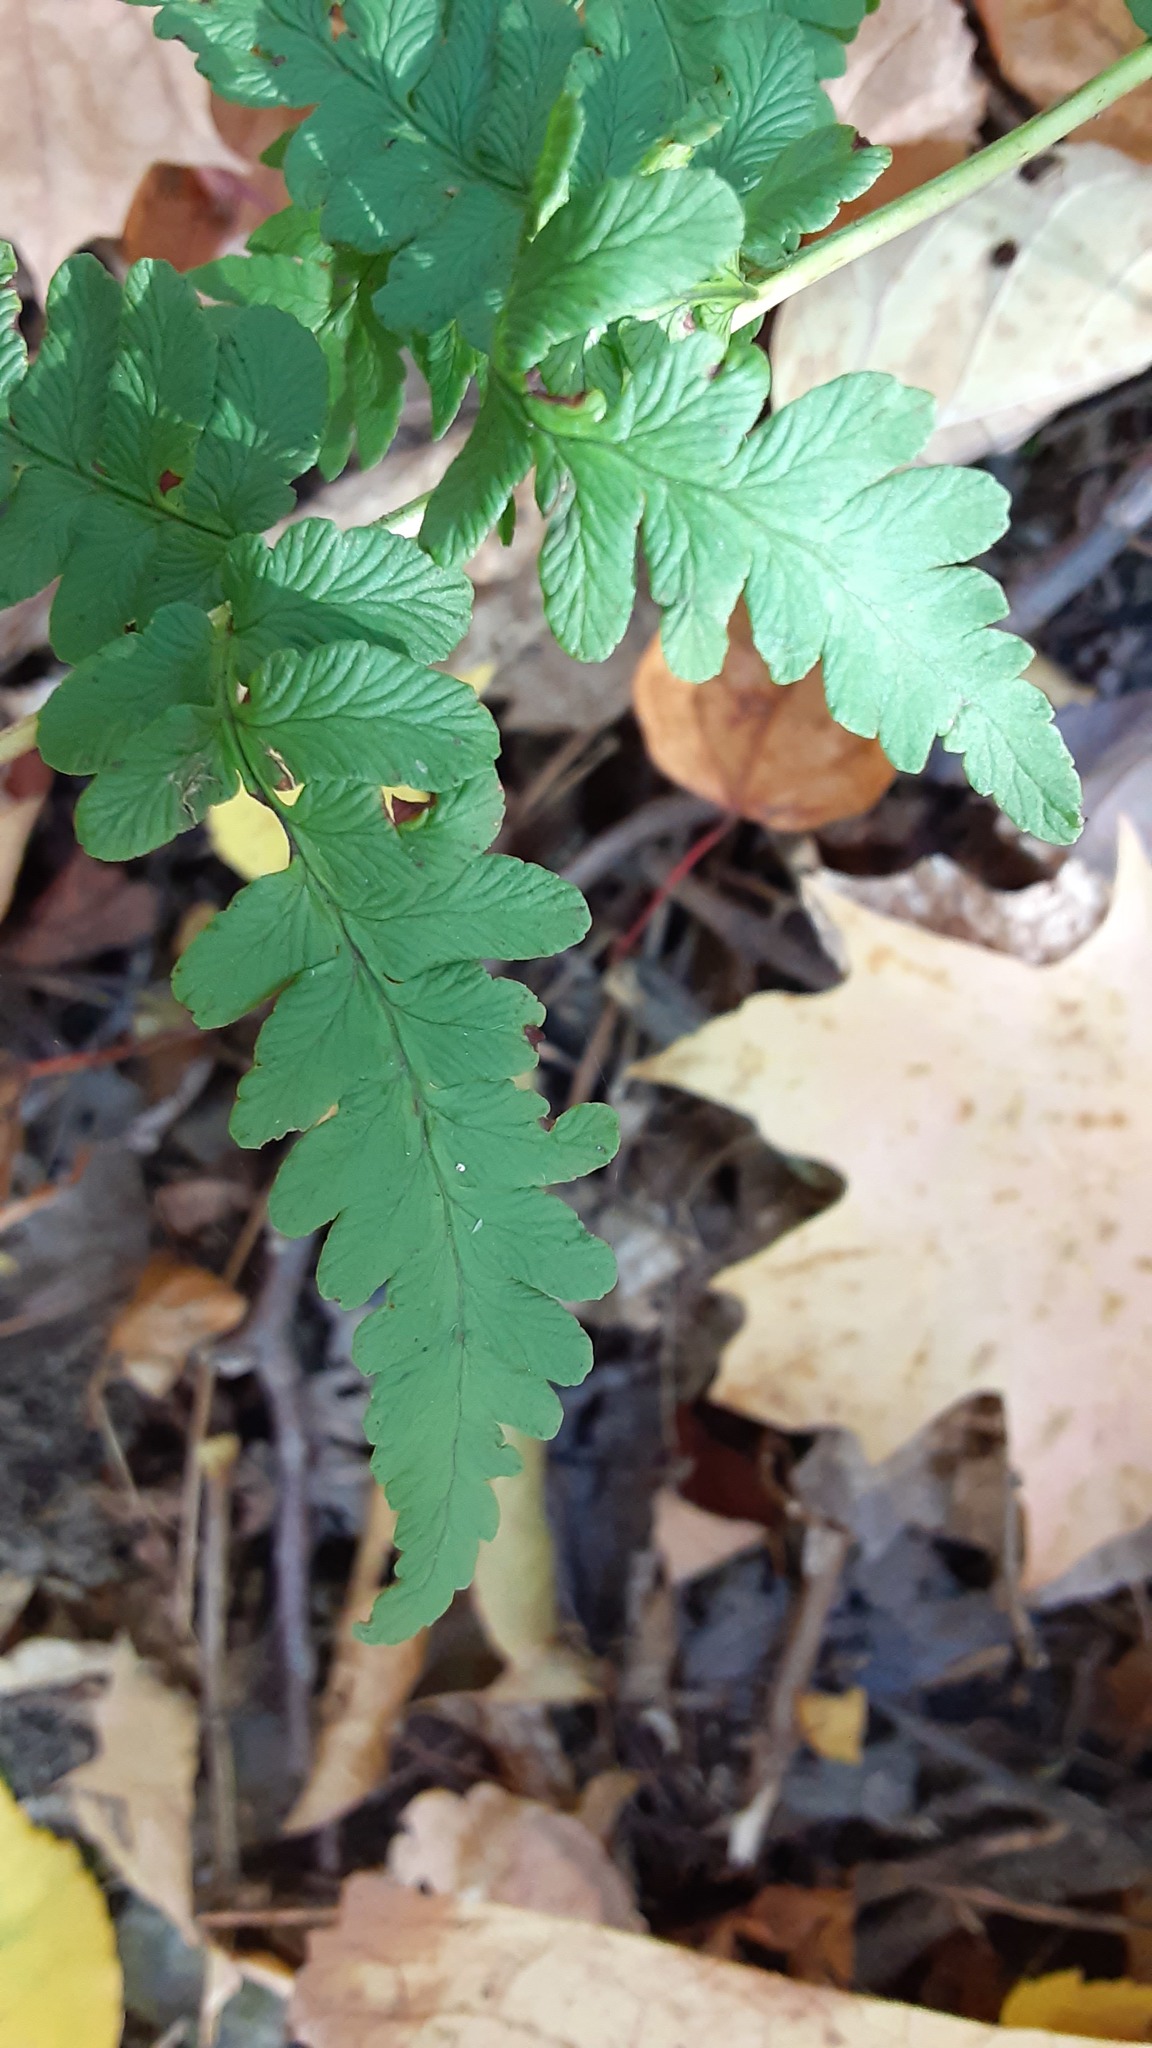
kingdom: Plantae
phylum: Tracheophyta
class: Polypodiopsida
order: Polypodiales
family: Dryopteridaceae
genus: Dryopteris
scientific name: Dryopteris marginalis
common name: Marginal wood fern
